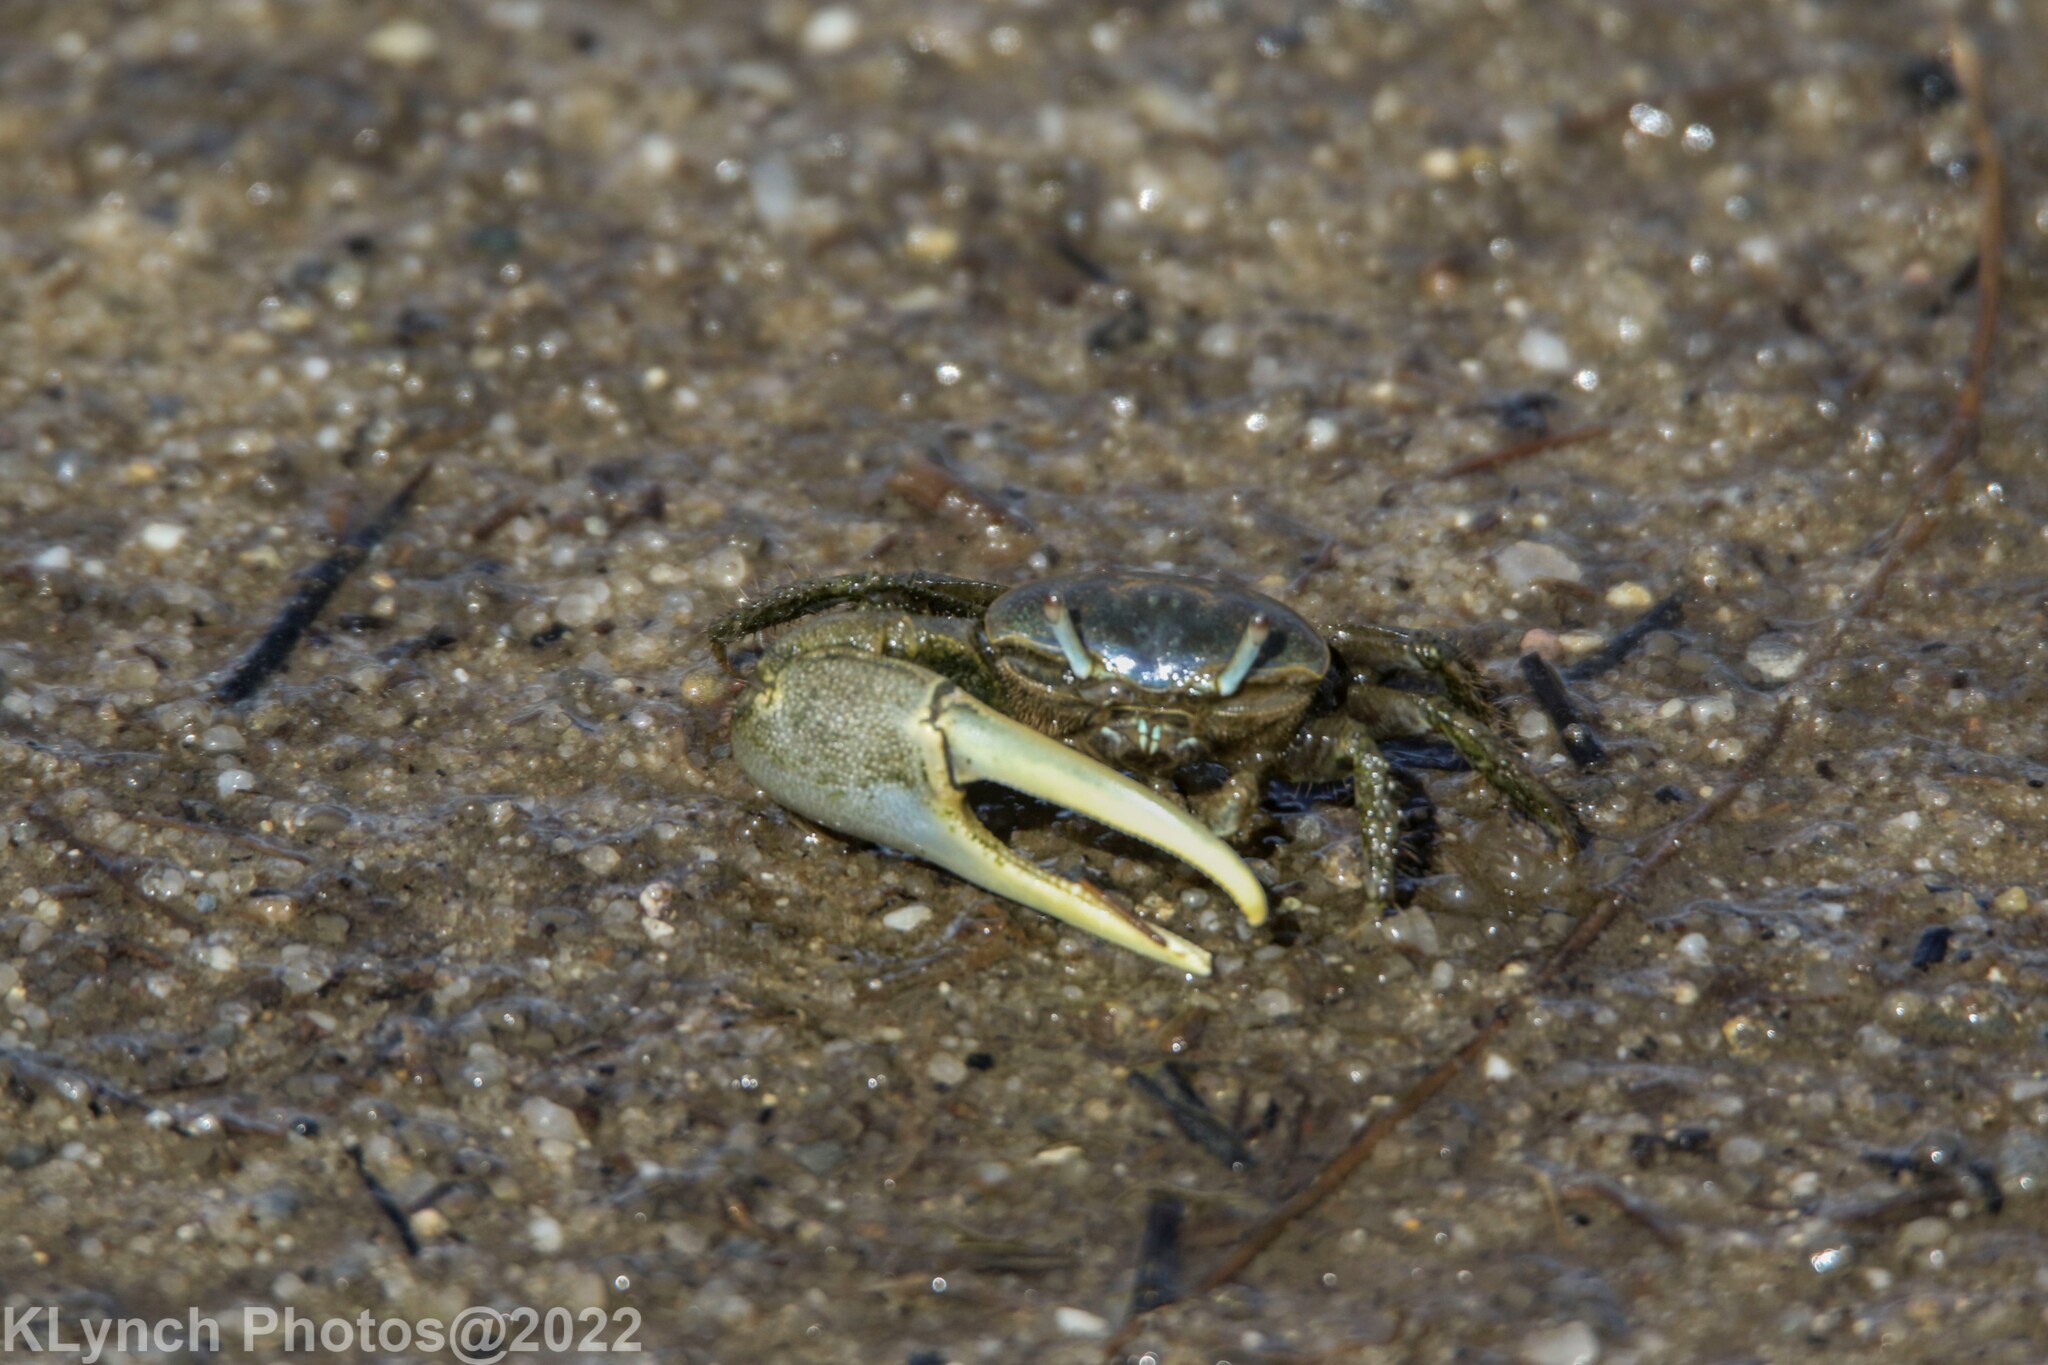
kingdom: Animalia
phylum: Arthropoda
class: Malacostraca
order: Decapoda
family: Ocypodidae
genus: Minuca
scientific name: Minuca pugnax
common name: Mud fiddler crab
